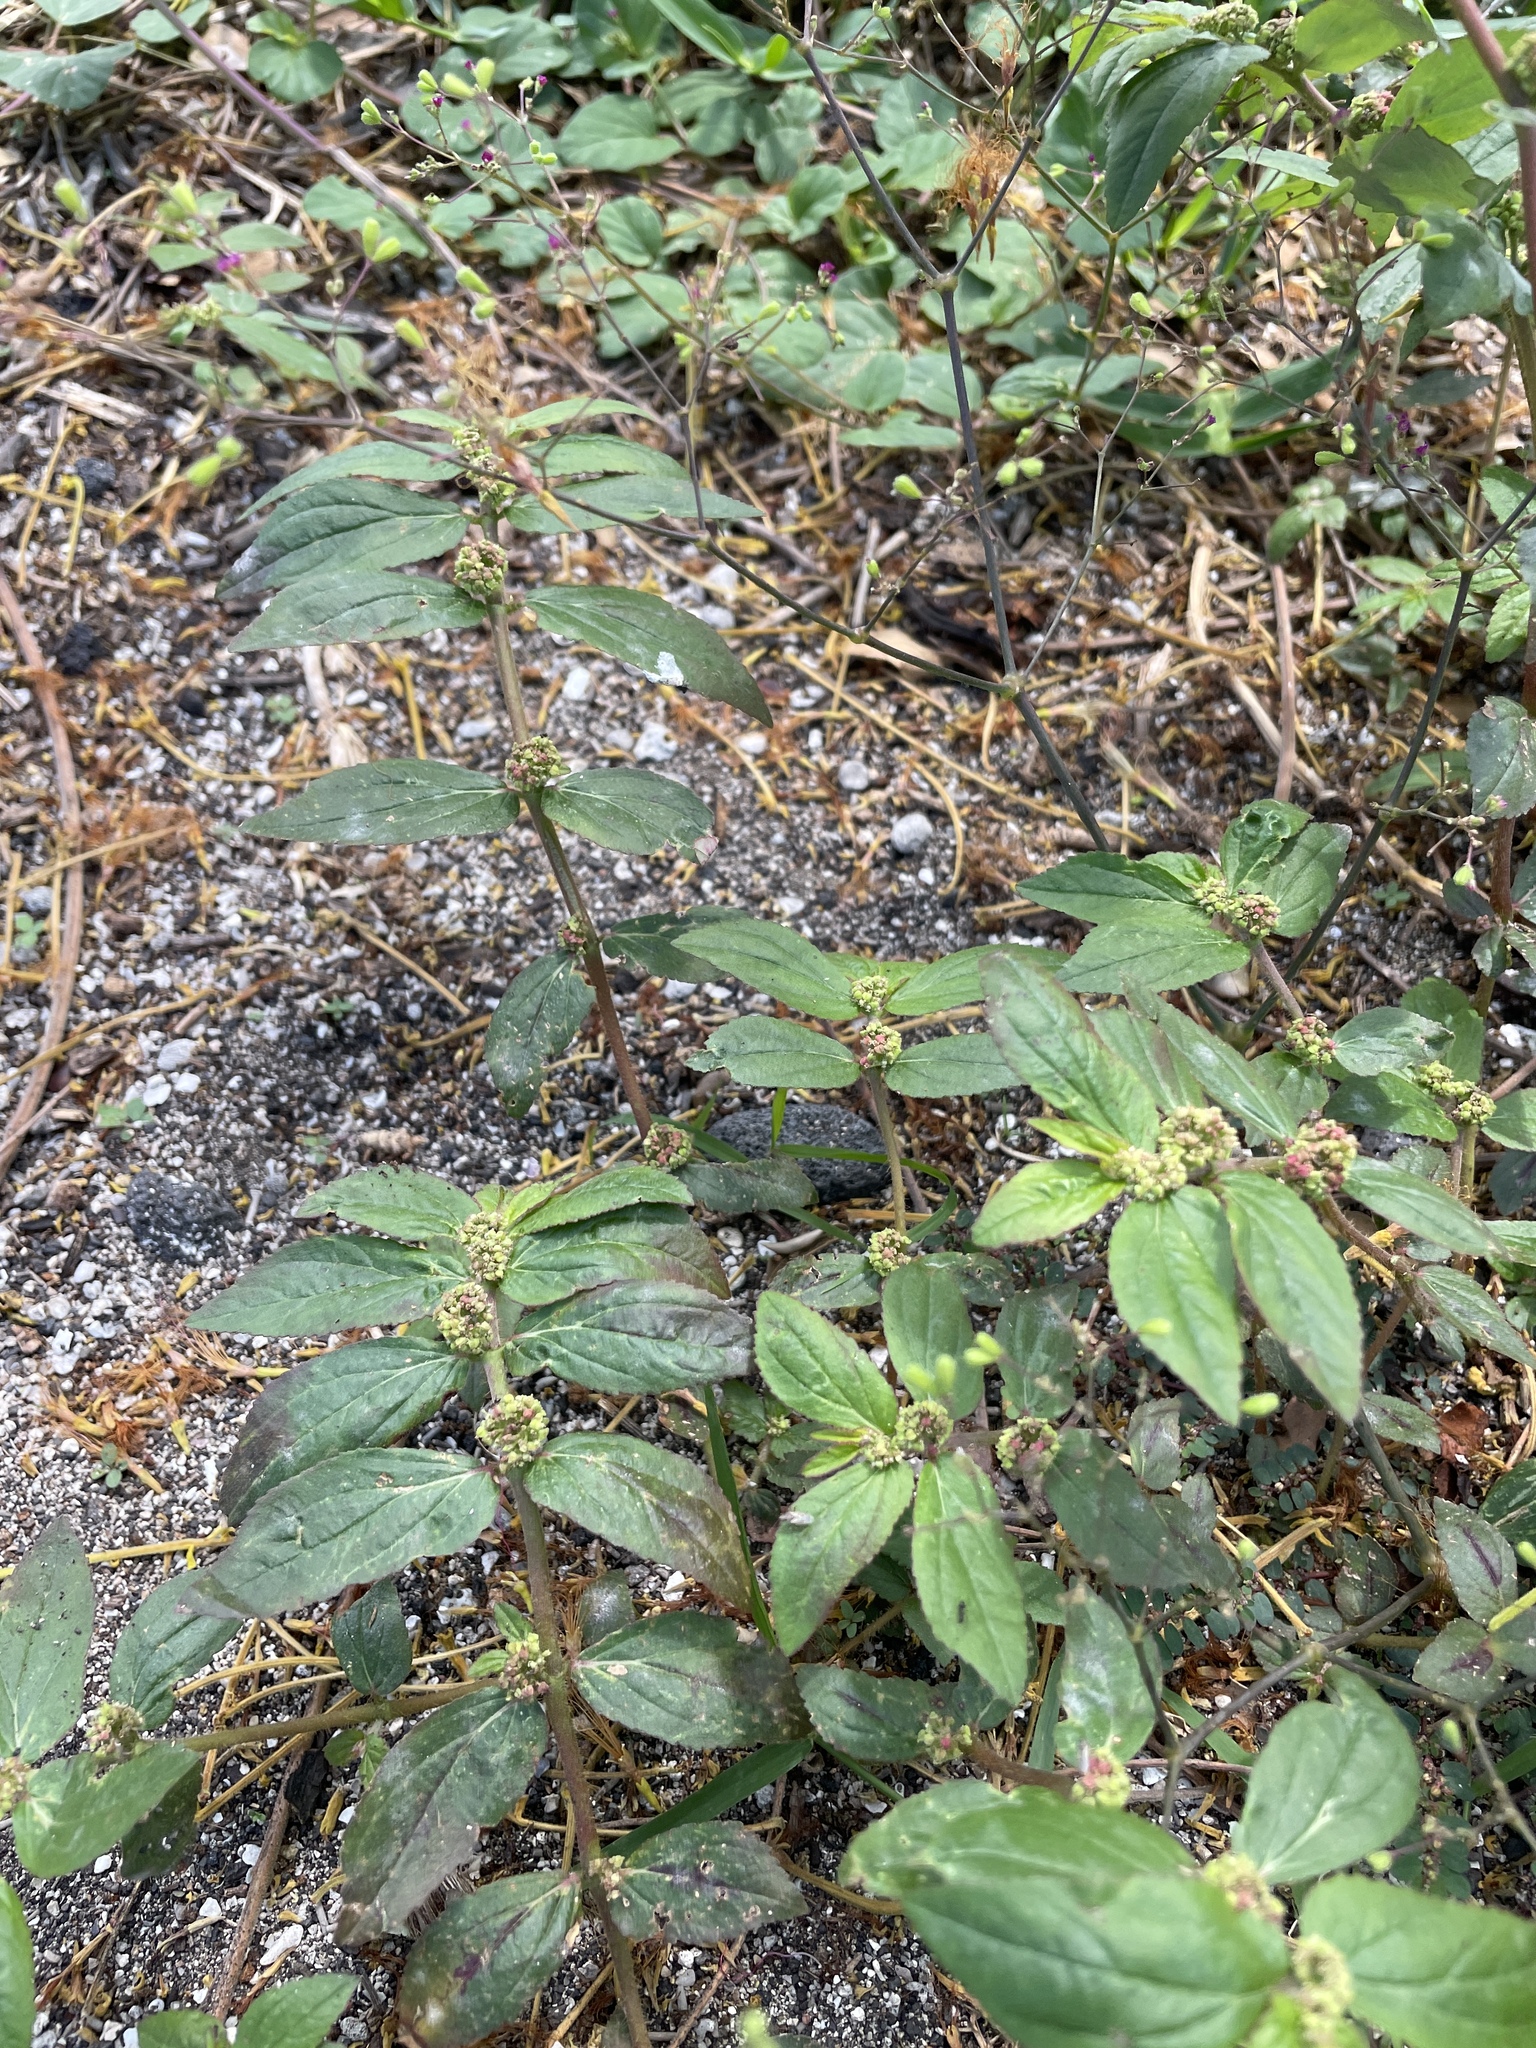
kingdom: Plantae
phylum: Tracheophyta
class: Magnoliopsida
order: Malpighiales
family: Euphorbiaceae
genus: Euphorbia
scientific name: Euphorbia hirta
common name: Pillpod sandmat
